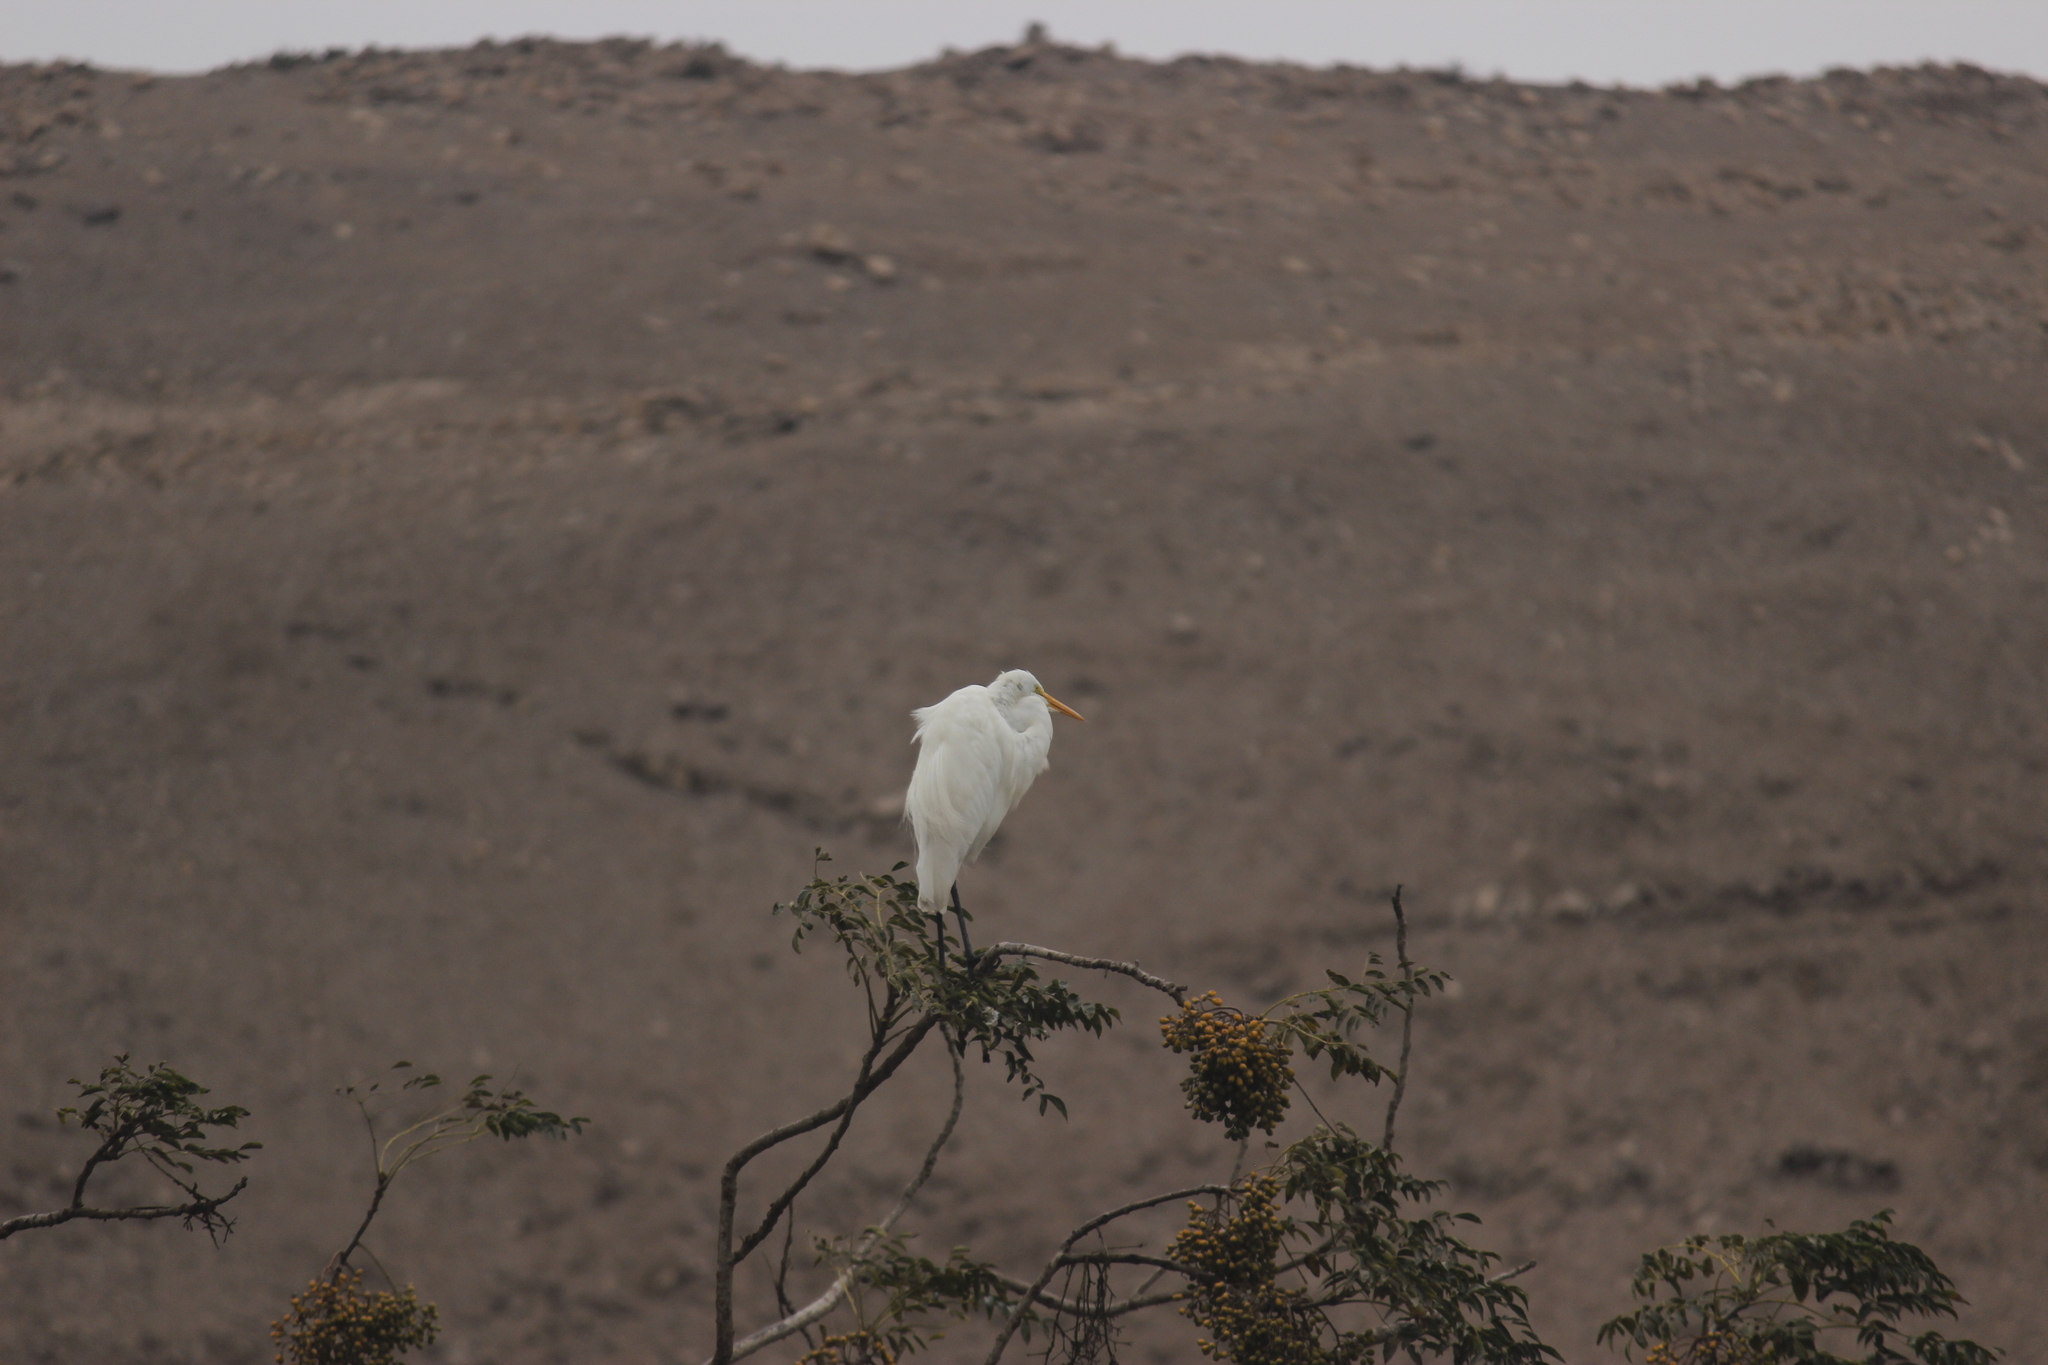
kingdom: Animalia
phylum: Chordata
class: Aves
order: Pelecaniformes
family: Ardeidae
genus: Ardea
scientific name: Ardea alba
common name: Great egret
